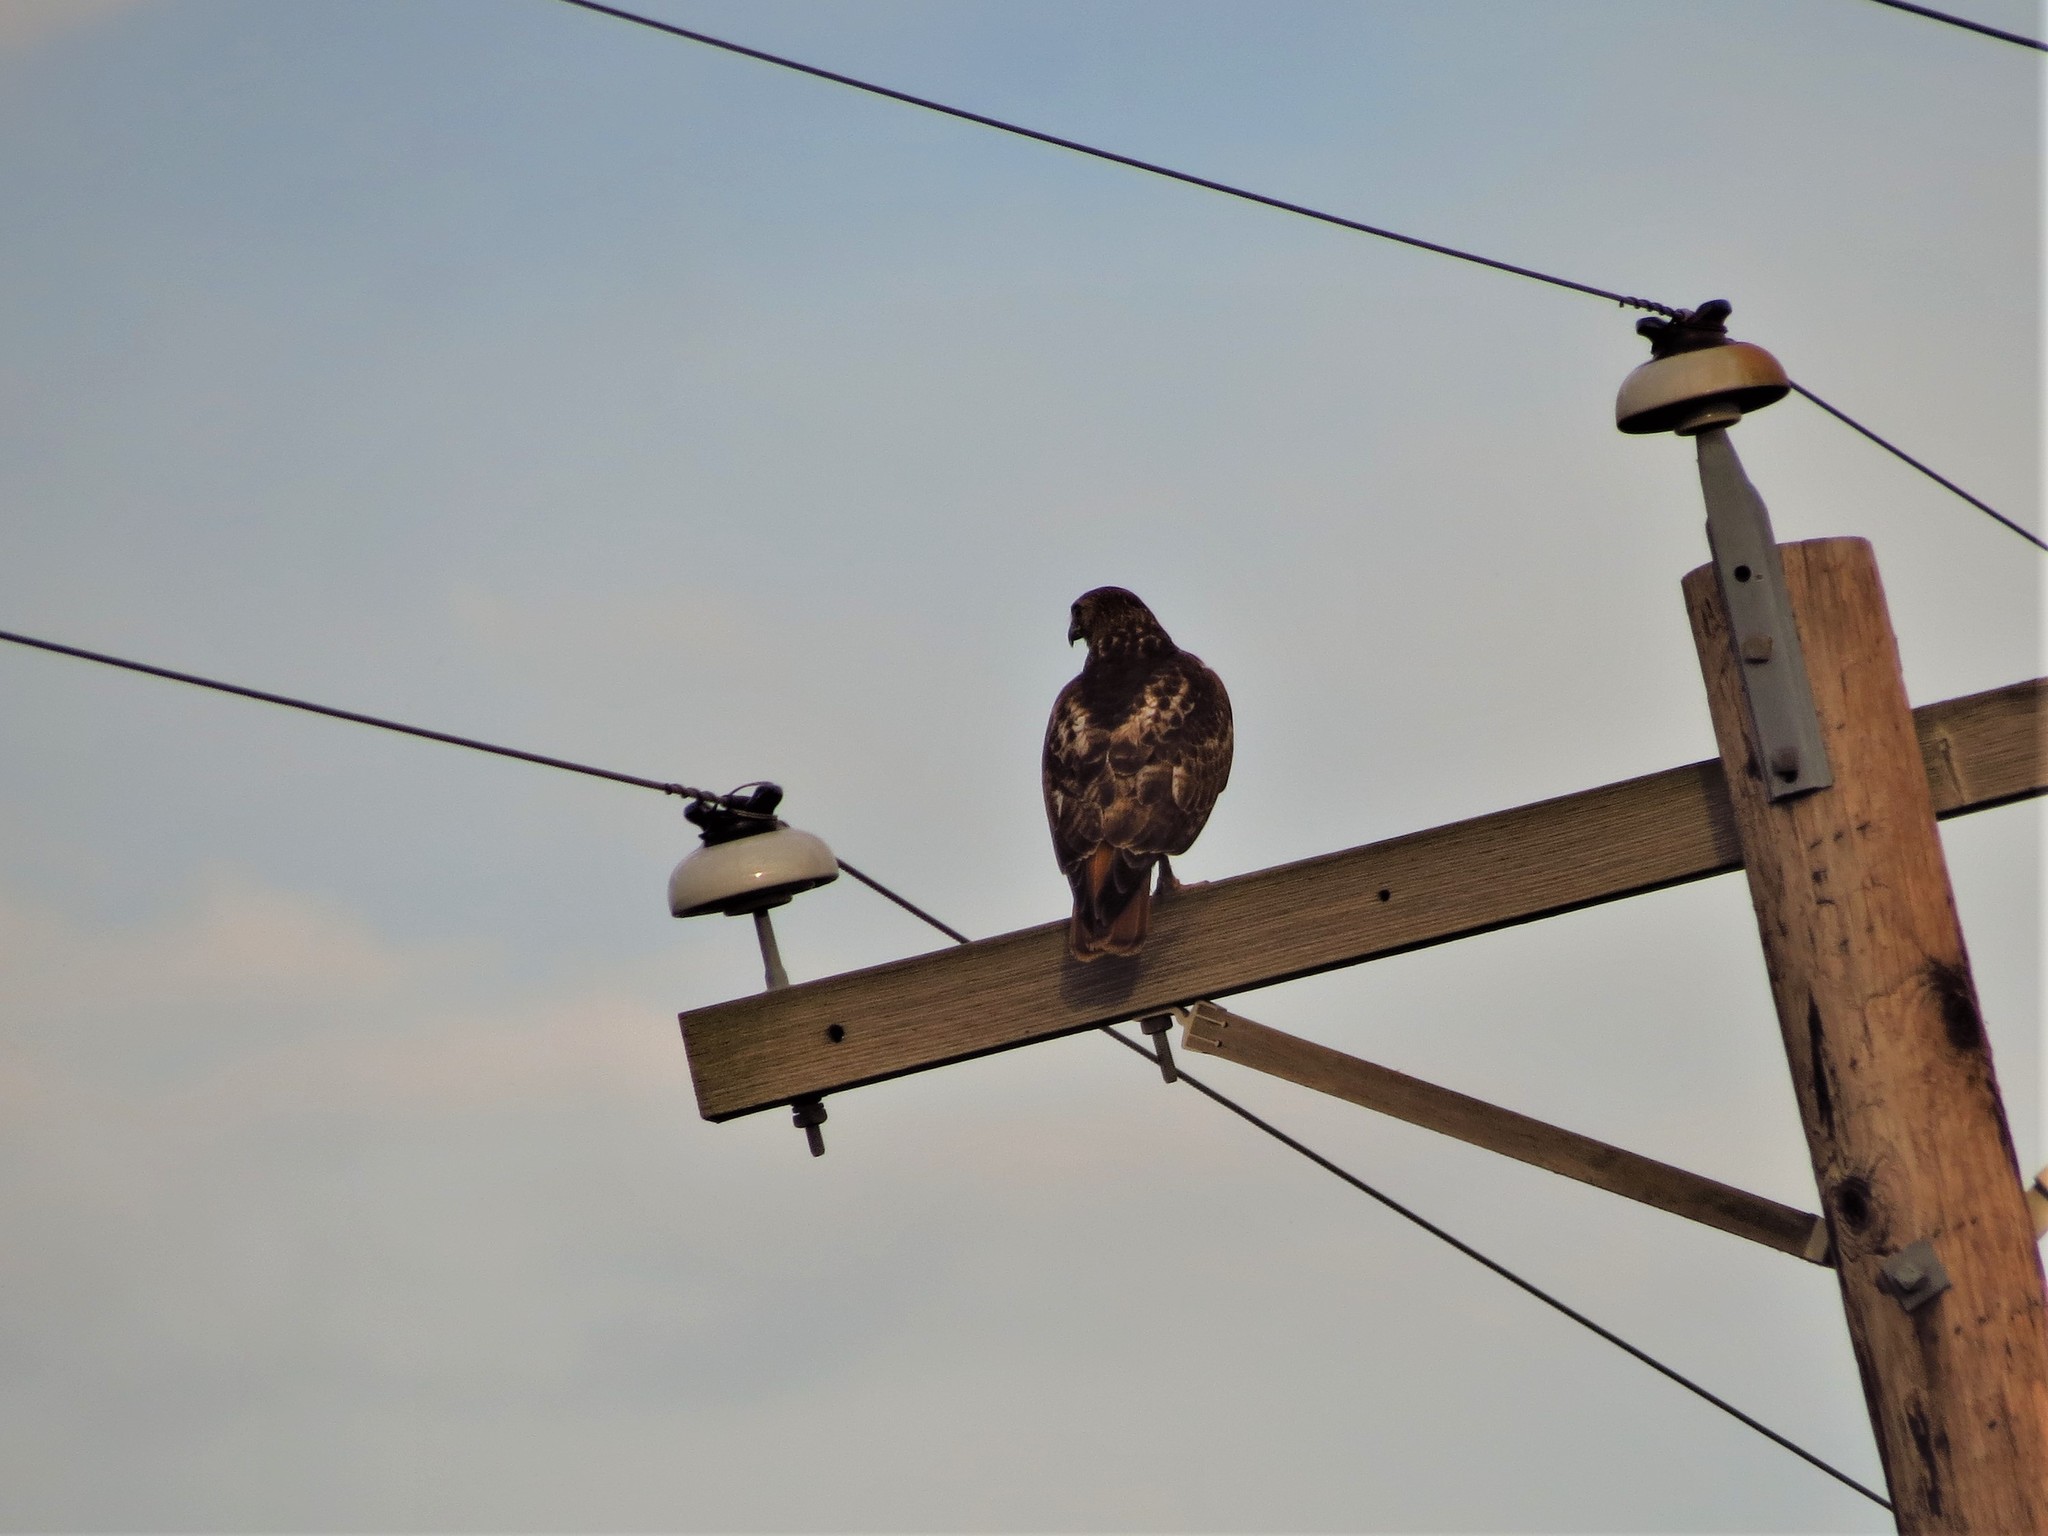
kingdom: Animalia
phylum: Chordata
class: Aves
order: Accipitriformes
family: Accipitridae
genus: Buteo
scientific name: Buteo jamaicensis
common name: Red-tailed hawk
